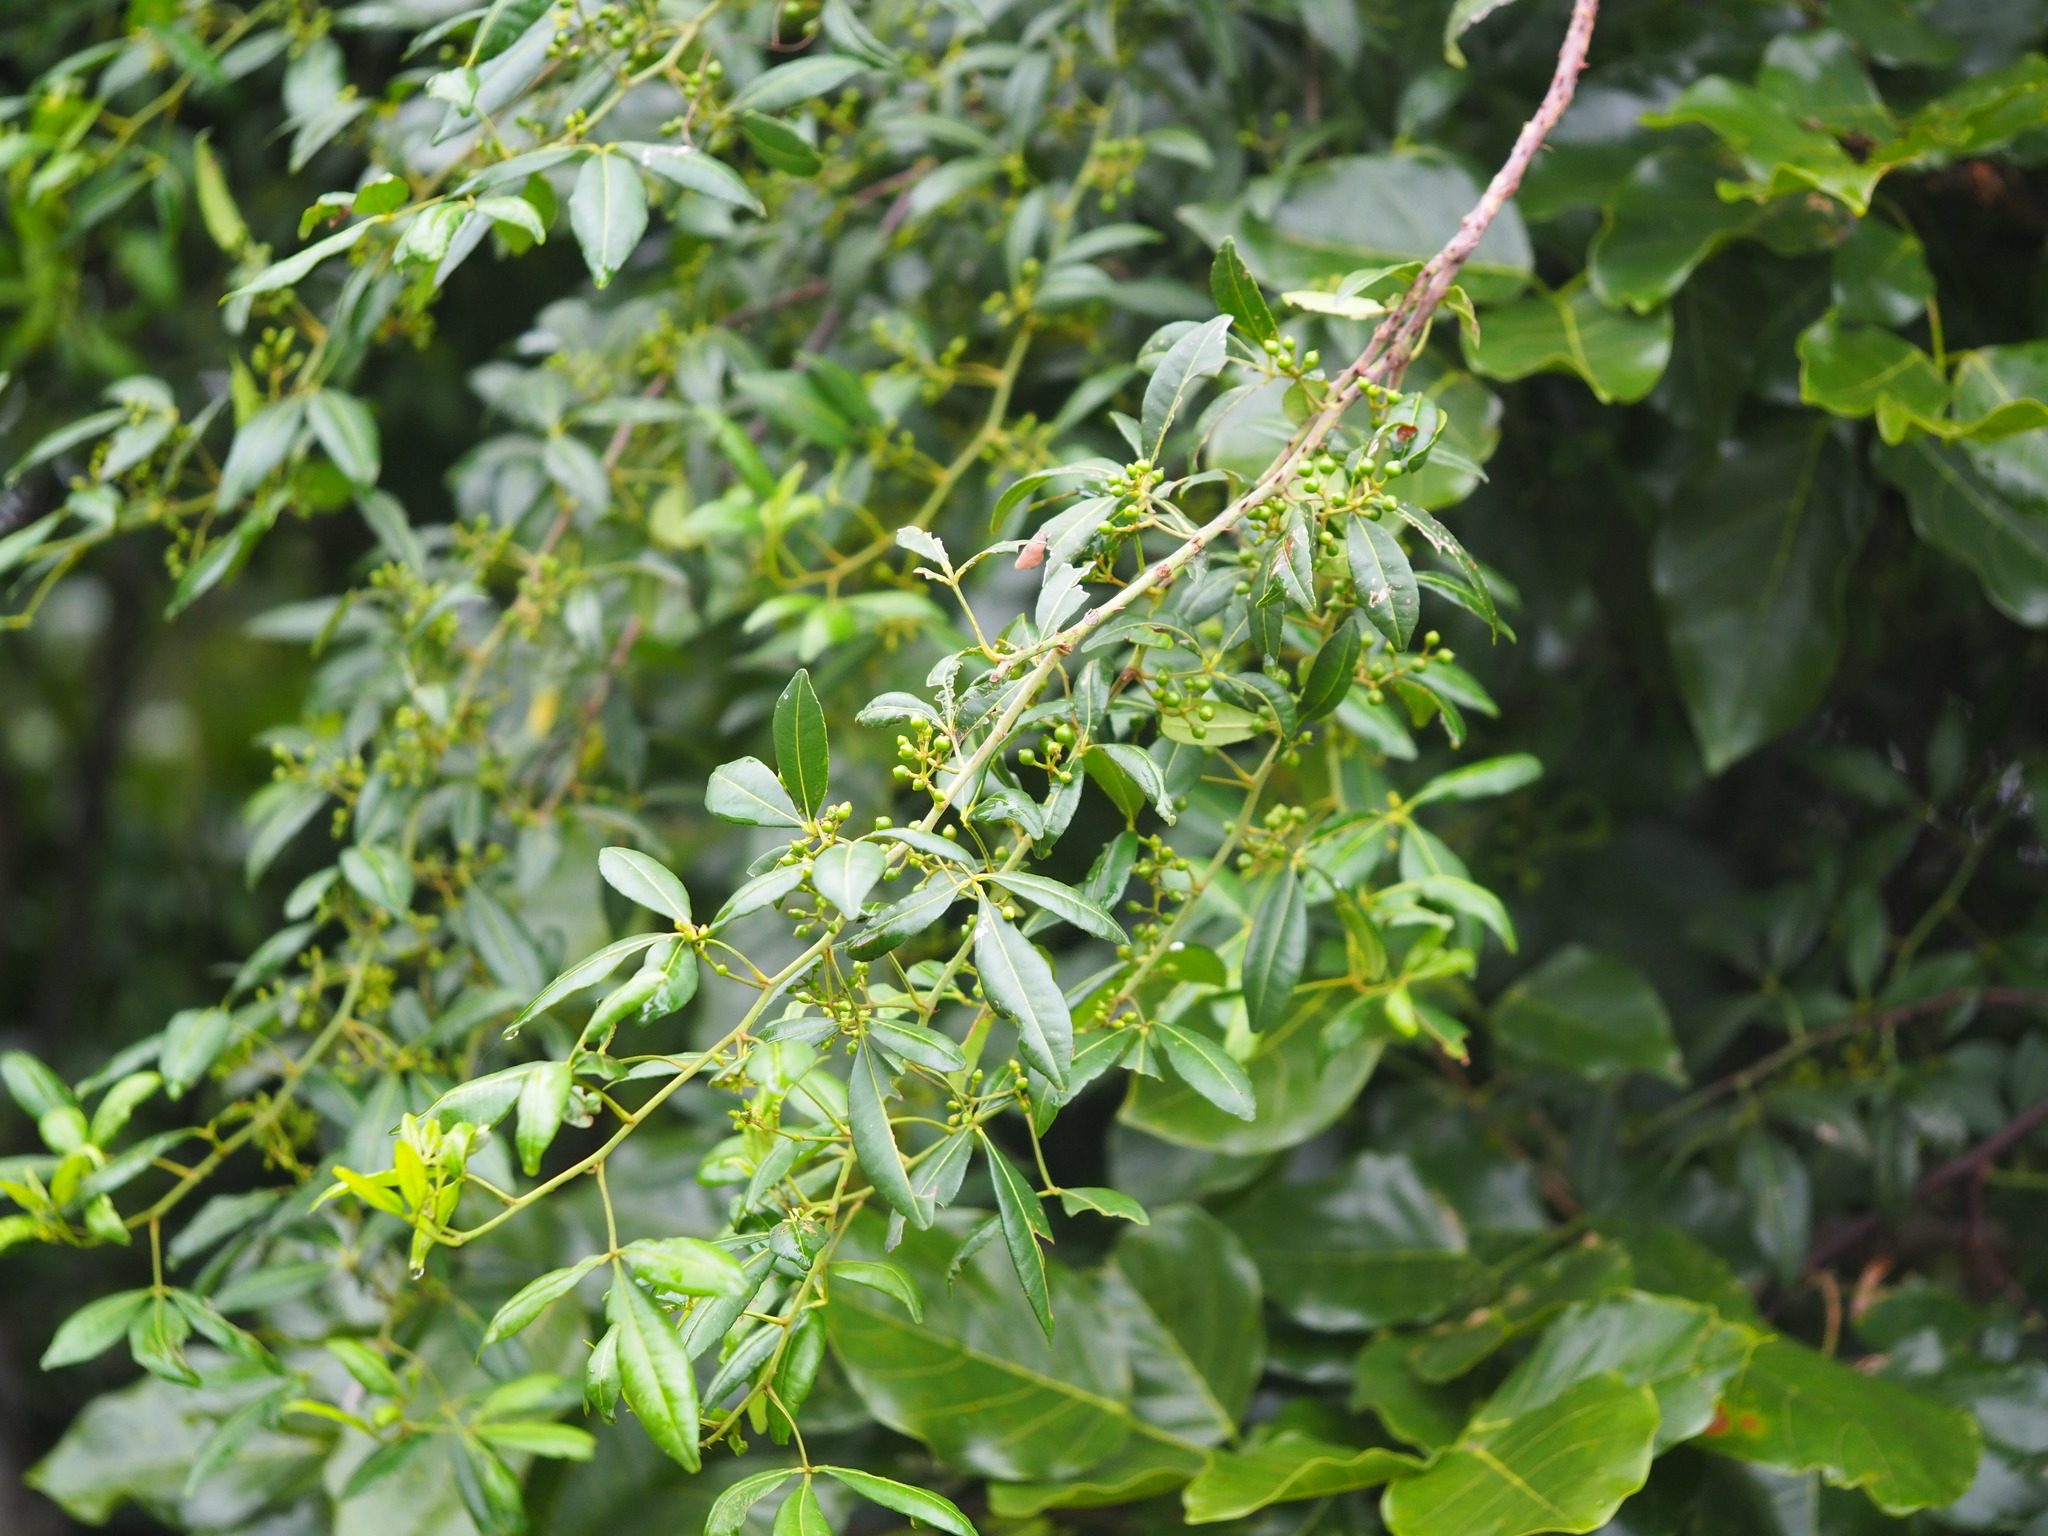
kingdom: Plantae
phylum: Tracheophyta
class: Magnoliopsida
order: Sapindales
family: Rutaceae
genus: Zanthoxylum
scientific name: Zanthoxylum asiaticum
